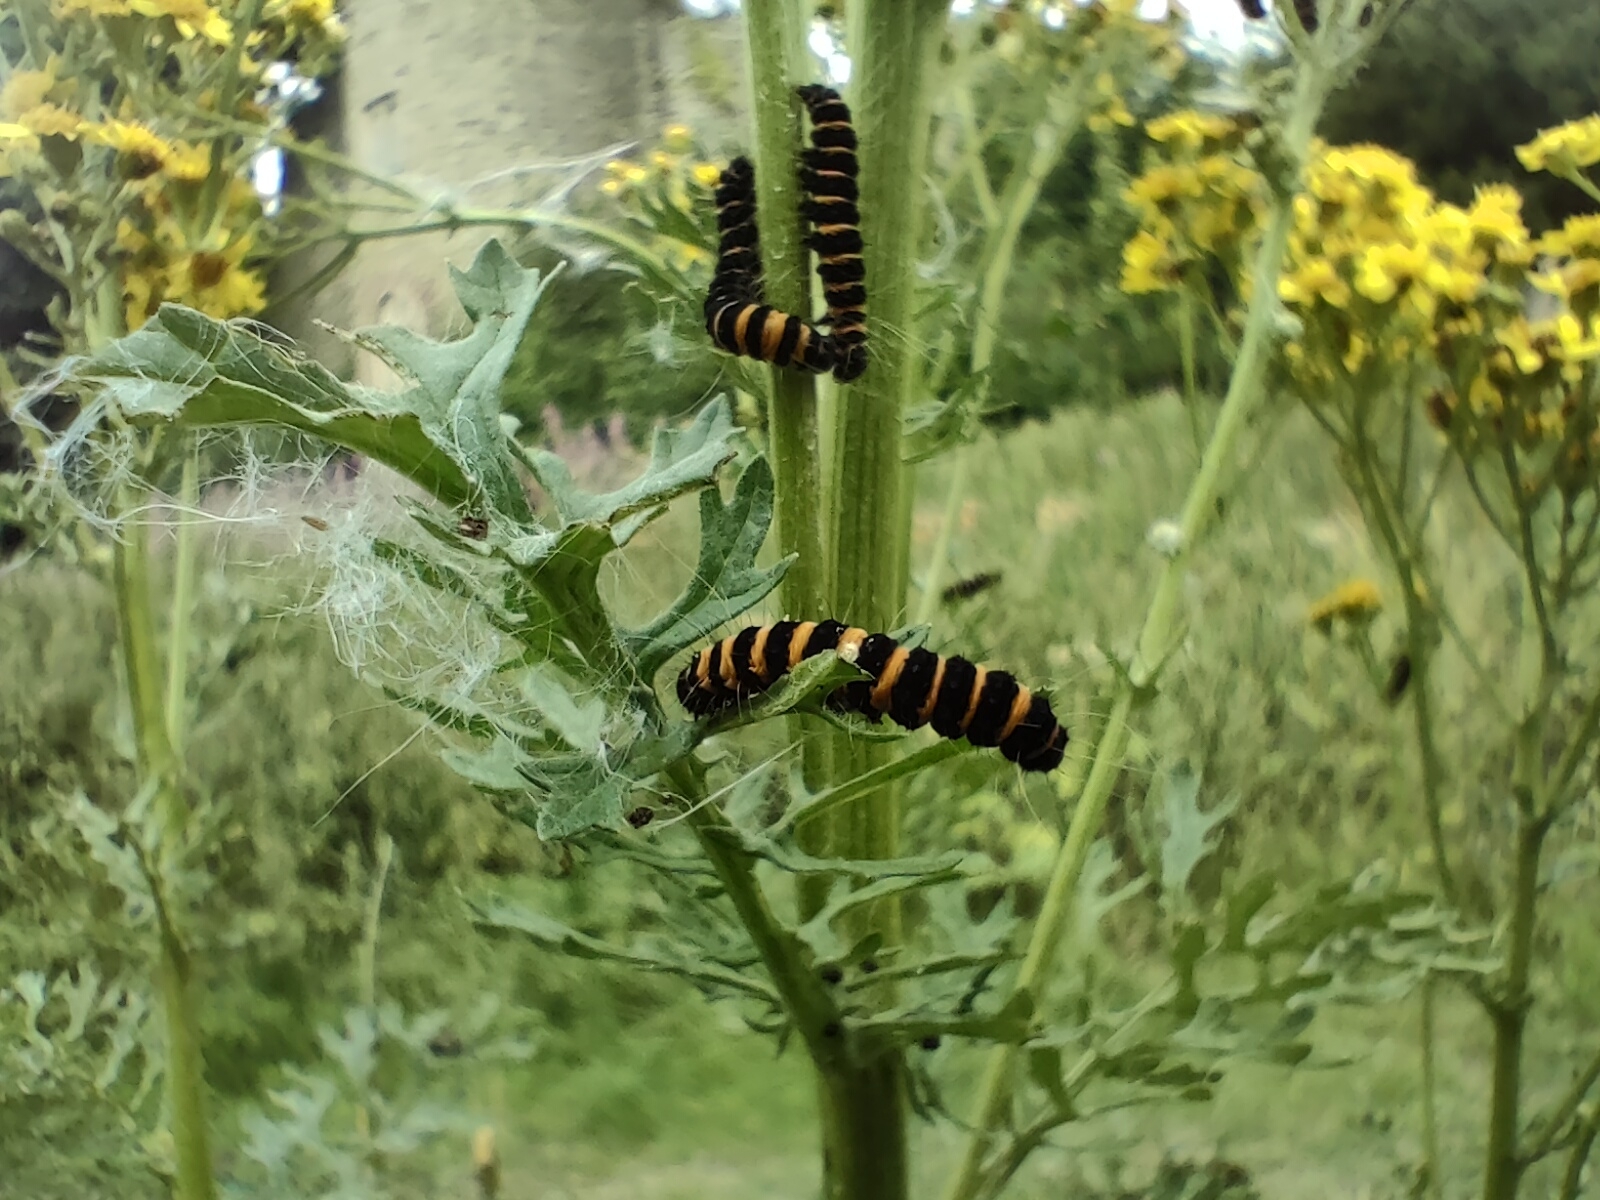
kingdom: Animalia
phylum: Arthropoda
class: Insecta
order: Lepidoptera
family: Erebidae
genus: Tyria
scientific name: Tyria jacobaeae
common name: Cinnabar
